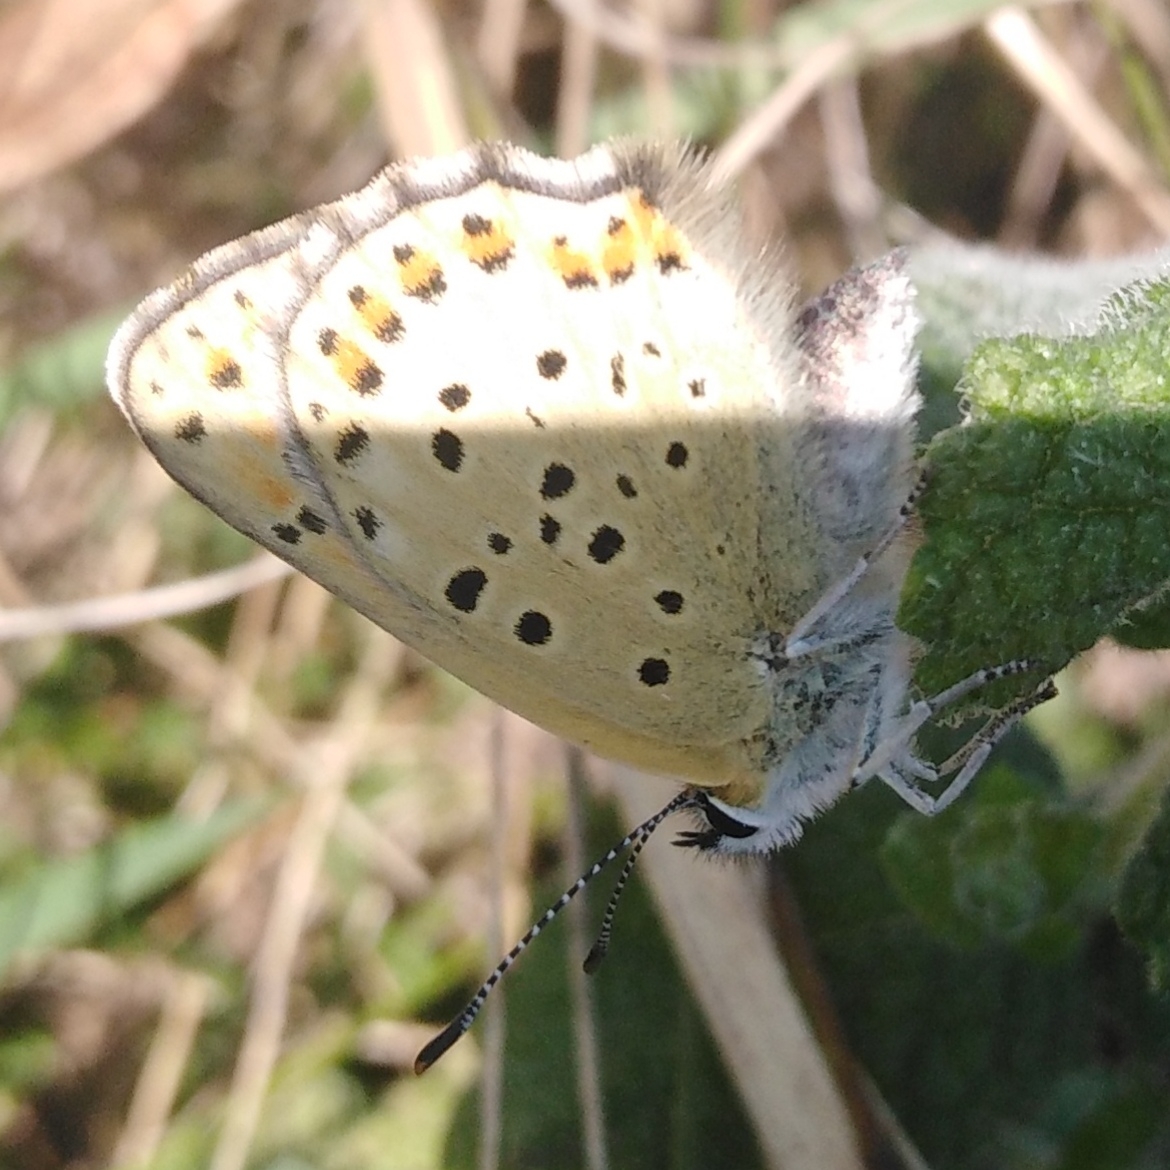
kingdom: Animalia
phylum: Arthropoda
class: Insecta
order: Lepidoptera
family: Lycaenidae
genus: Loweia
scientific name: Loweia tityrus
